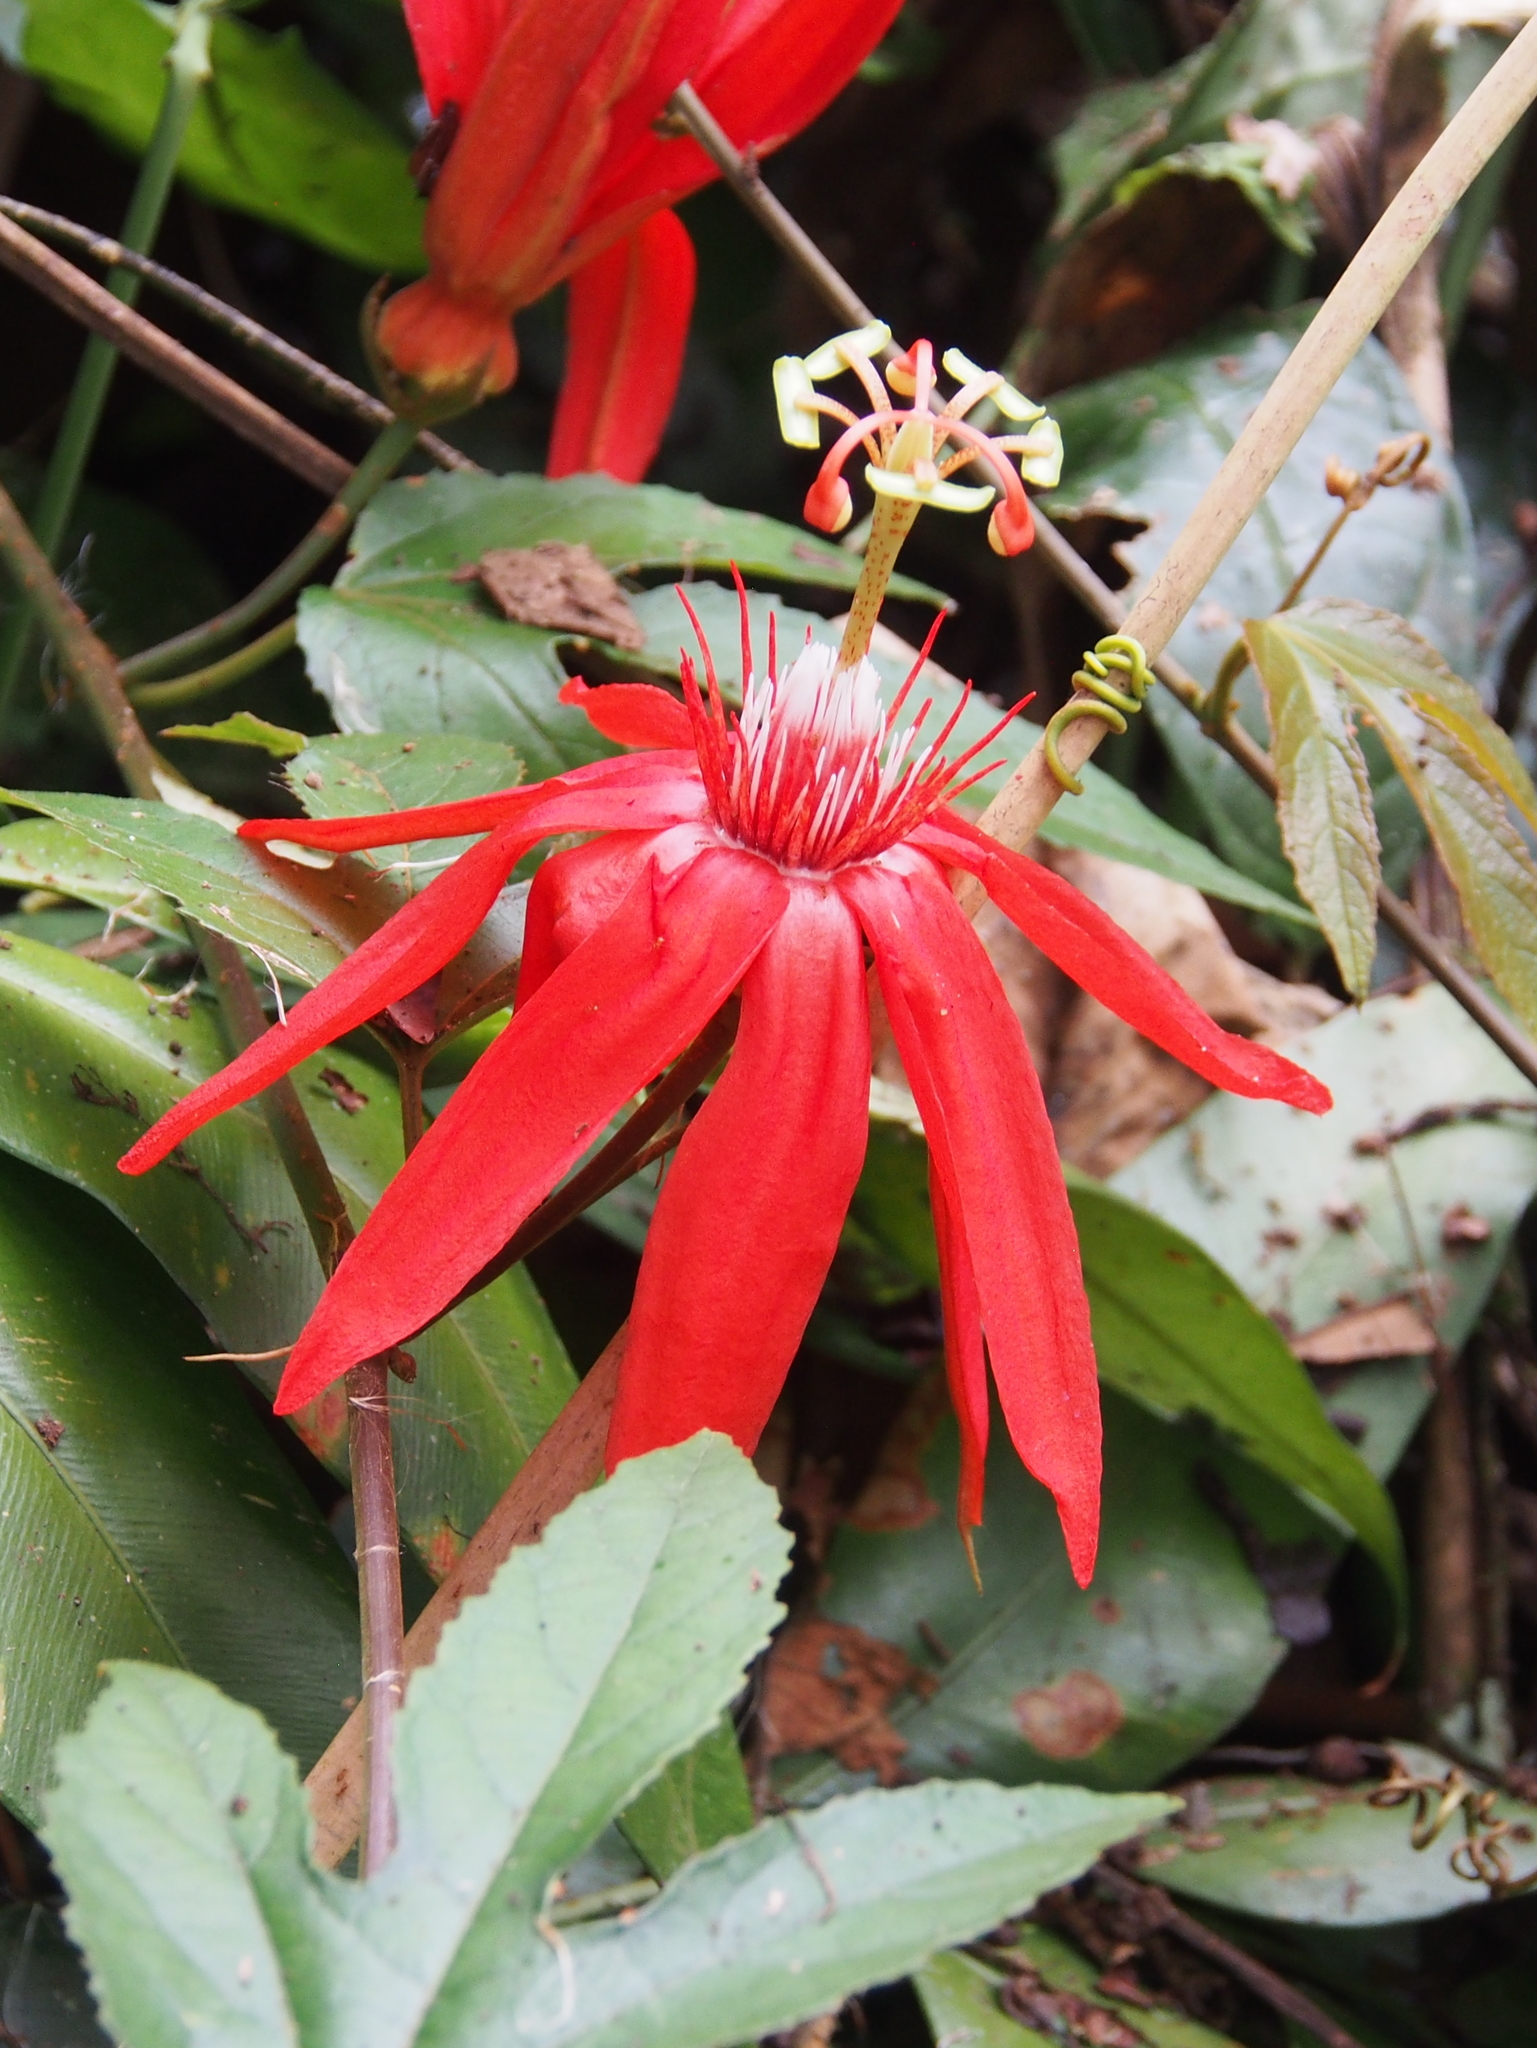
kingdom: Plantae
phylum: Tracheophyta
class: Magnoliopsida
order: Malpighiales
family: Passifloraceae
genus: Passiflora
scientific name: Passiflora vitifolia
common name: Perfumed passionflower
